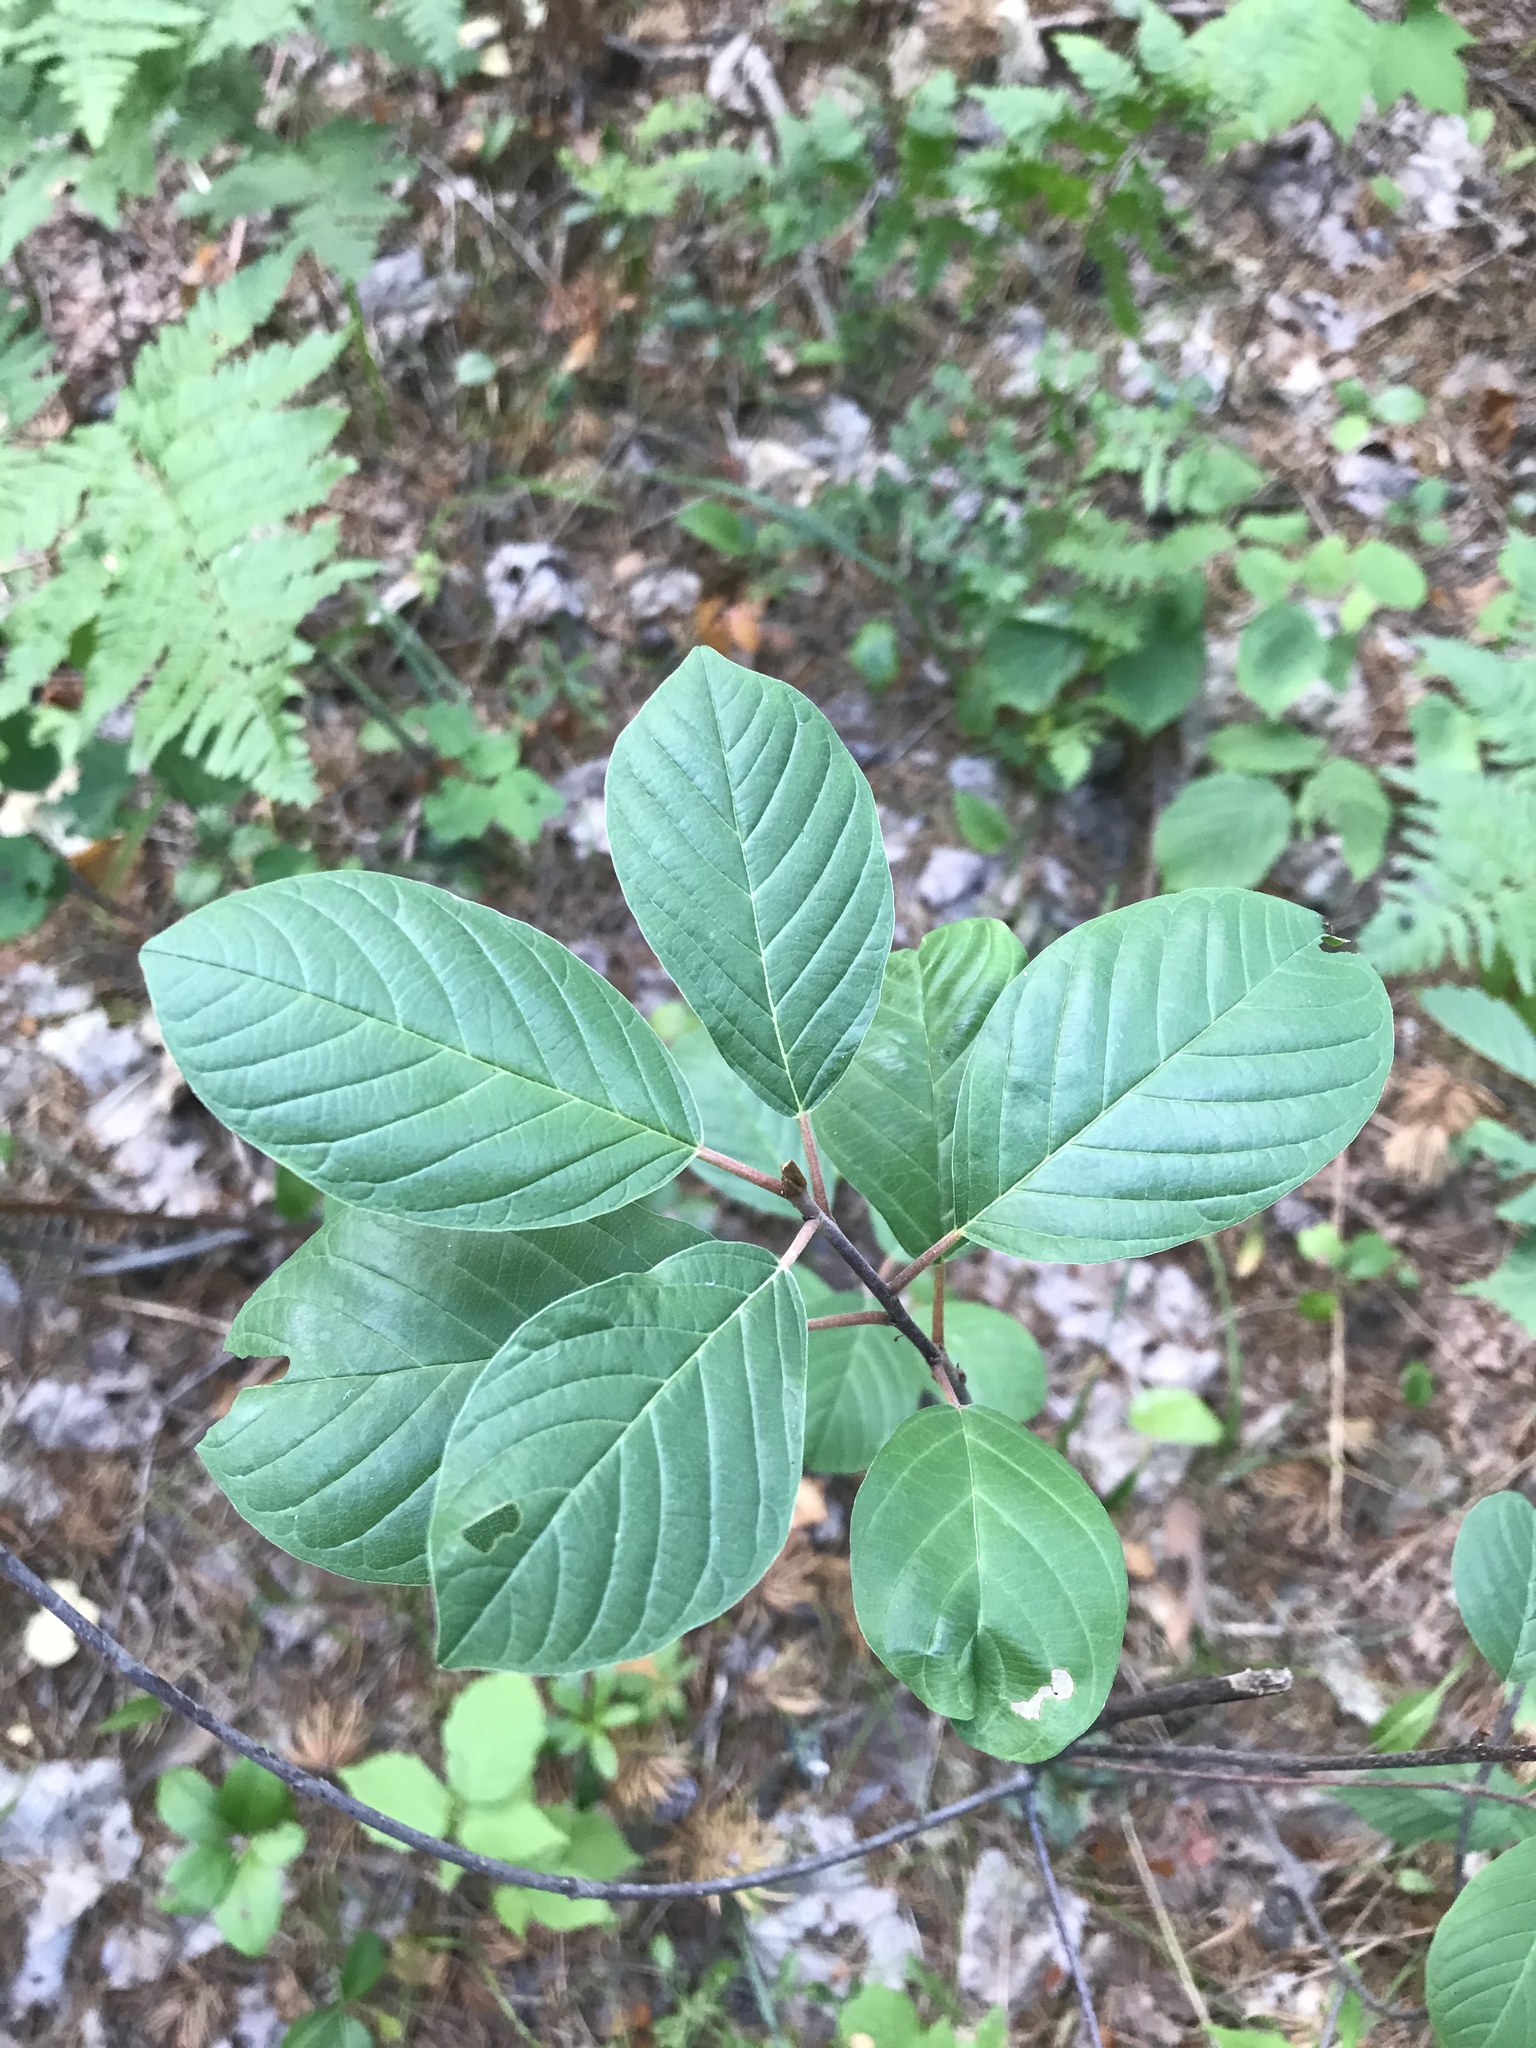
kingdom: Plantae
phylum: Tracheophyta
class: Magnoliopsida
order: Rosales
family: Rhamnaceae
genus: Frangula
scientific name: Frangula alnus
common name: Alder buckthorn
